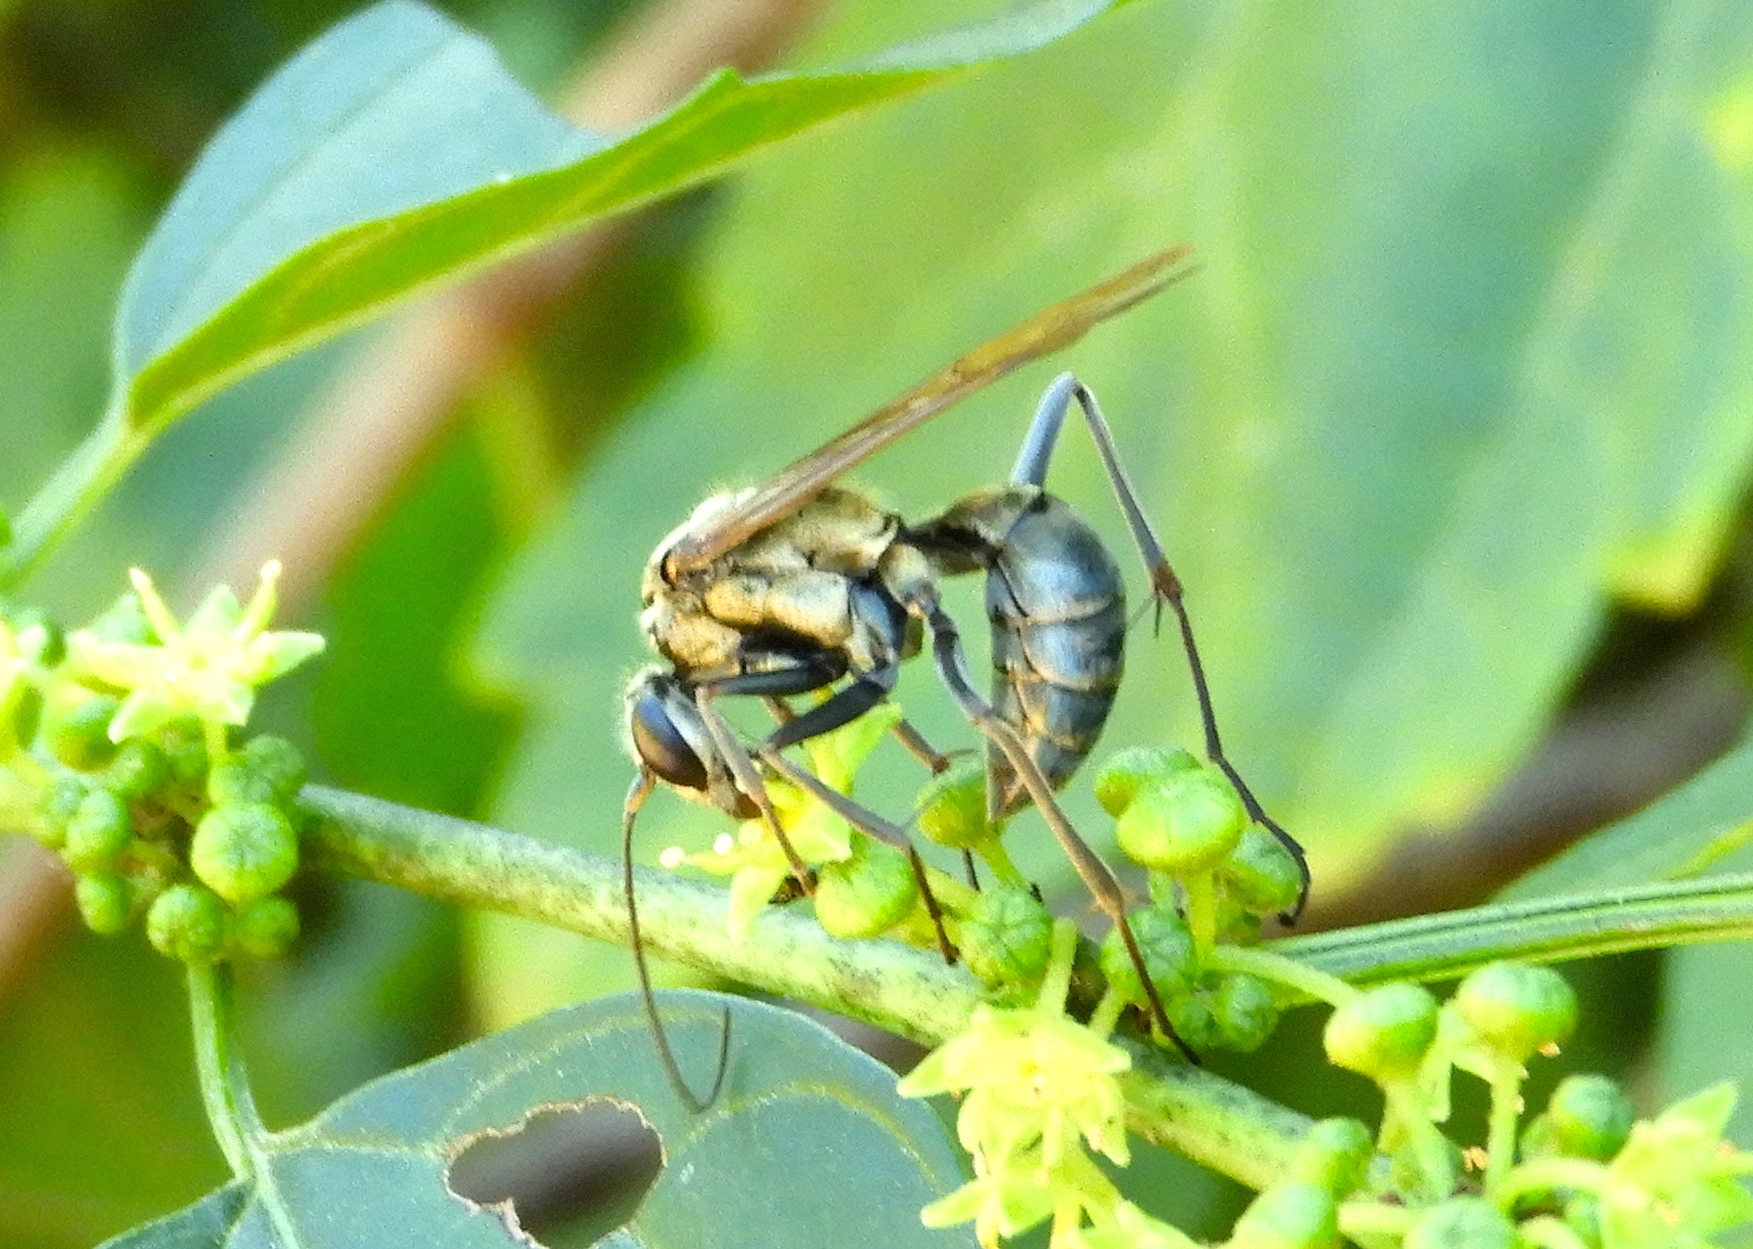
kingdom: Animalia
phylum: Arthropoda
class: Insecta
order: Hymenoptera
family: Pompilidae
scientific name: Pompilidae
